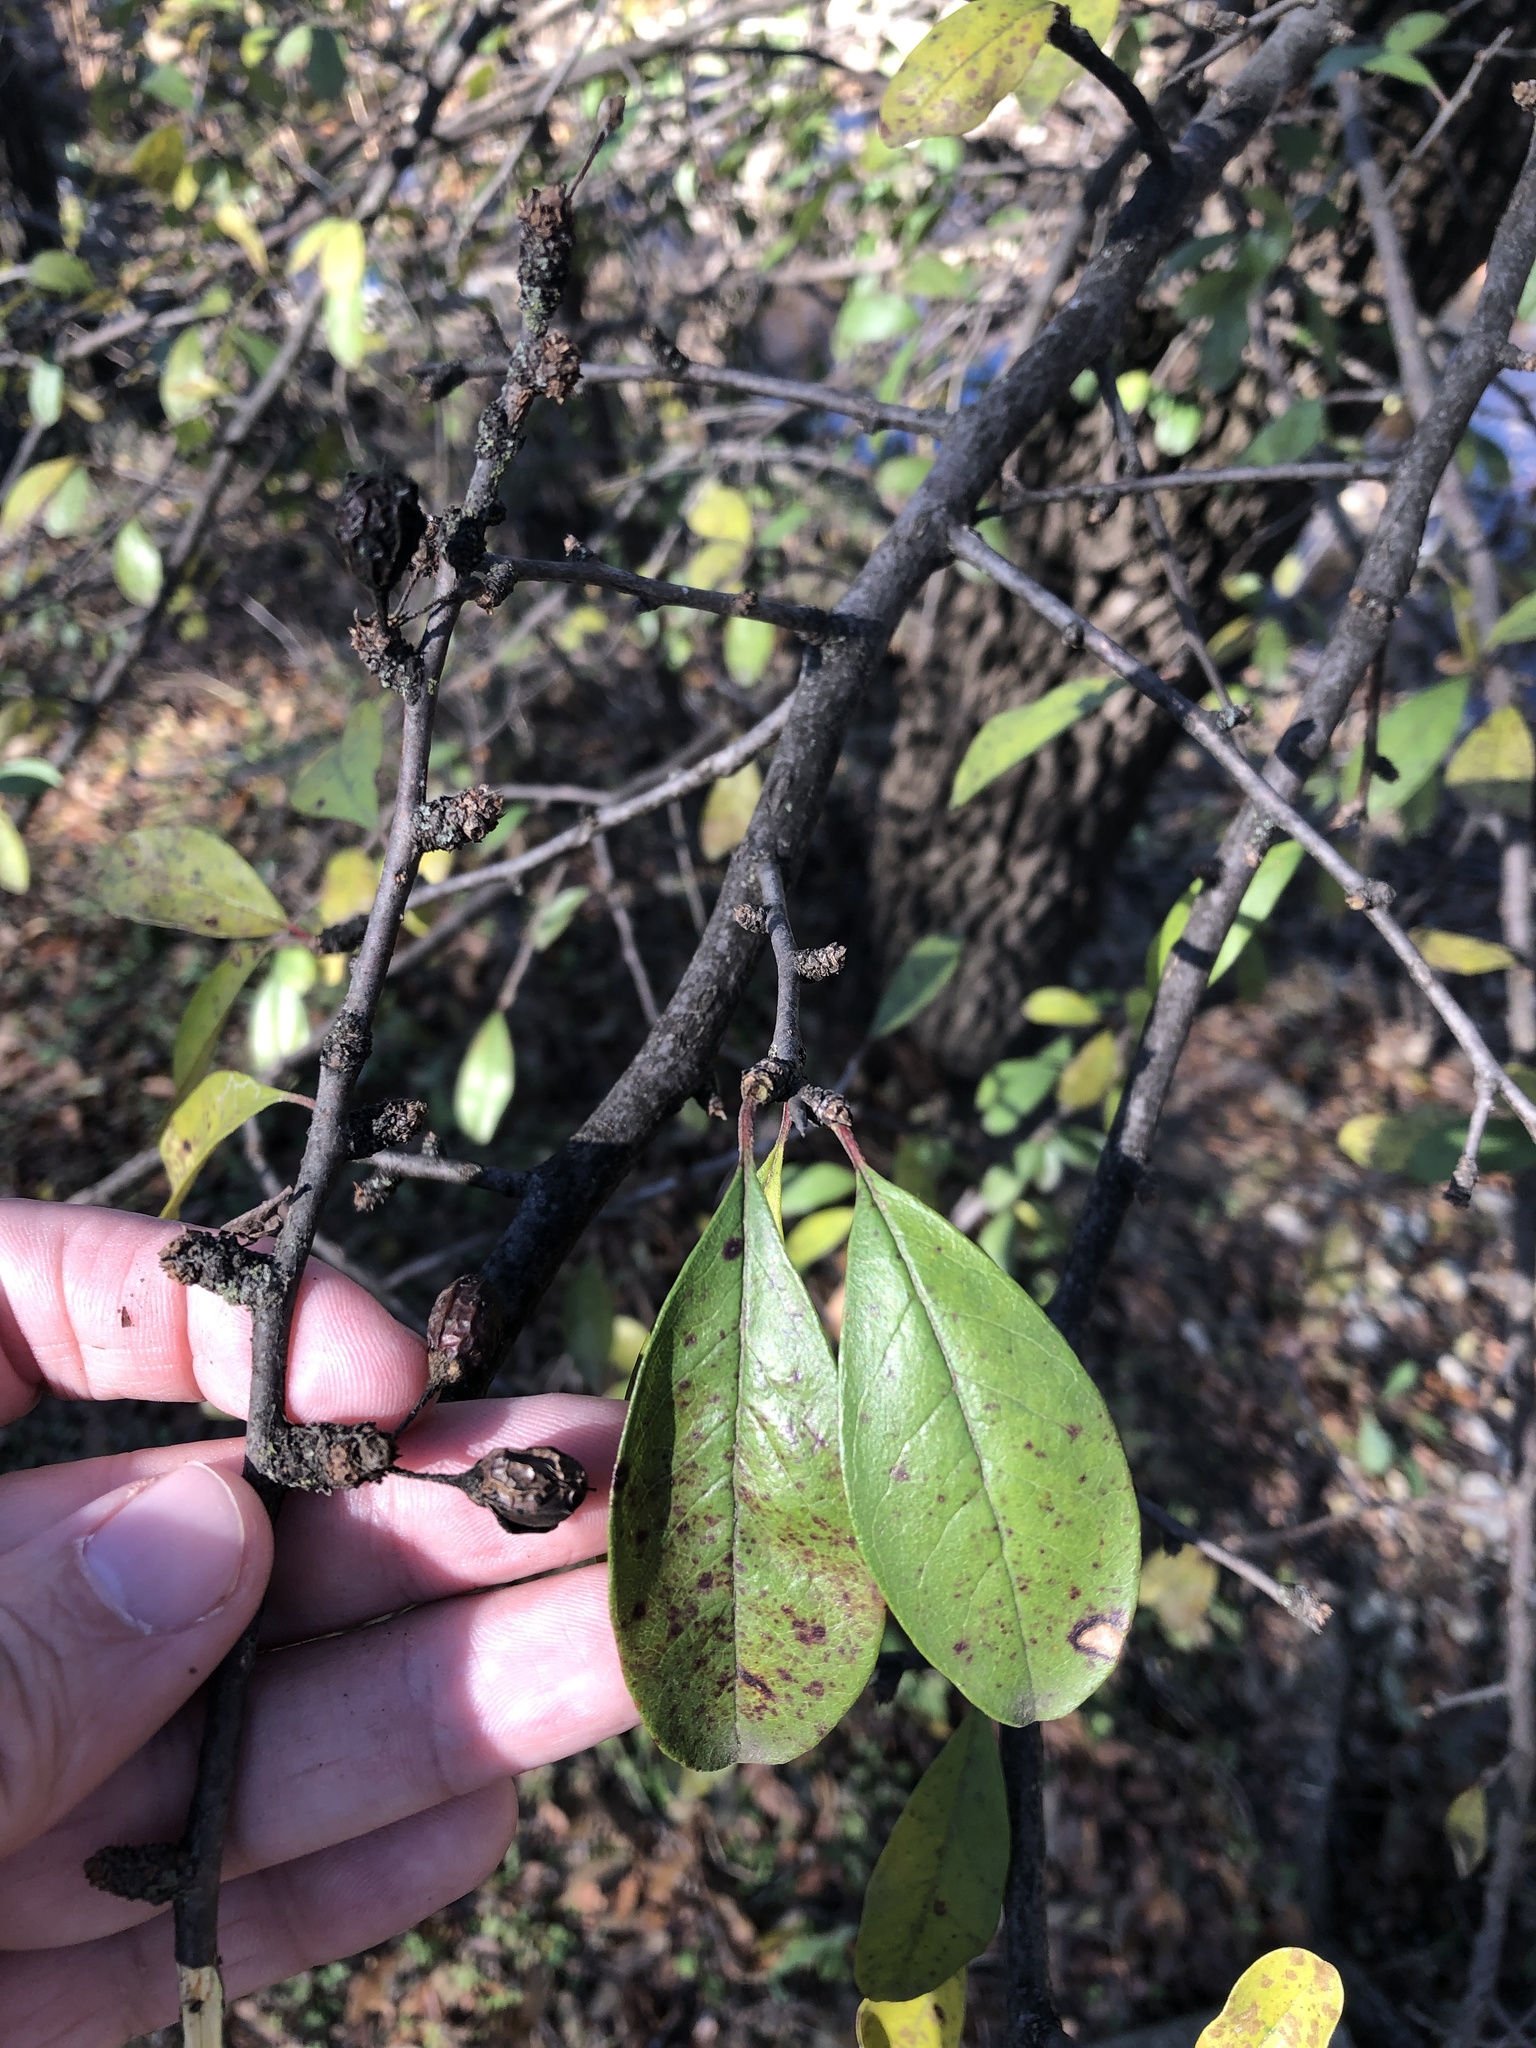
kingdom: Plantae
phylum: Tracheophyta
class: Magnoliopsida
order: Ericales
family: Sapotaceae
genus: Sideroxylon
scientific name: Sideroxylon lanuginosum
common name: Chittamwood
